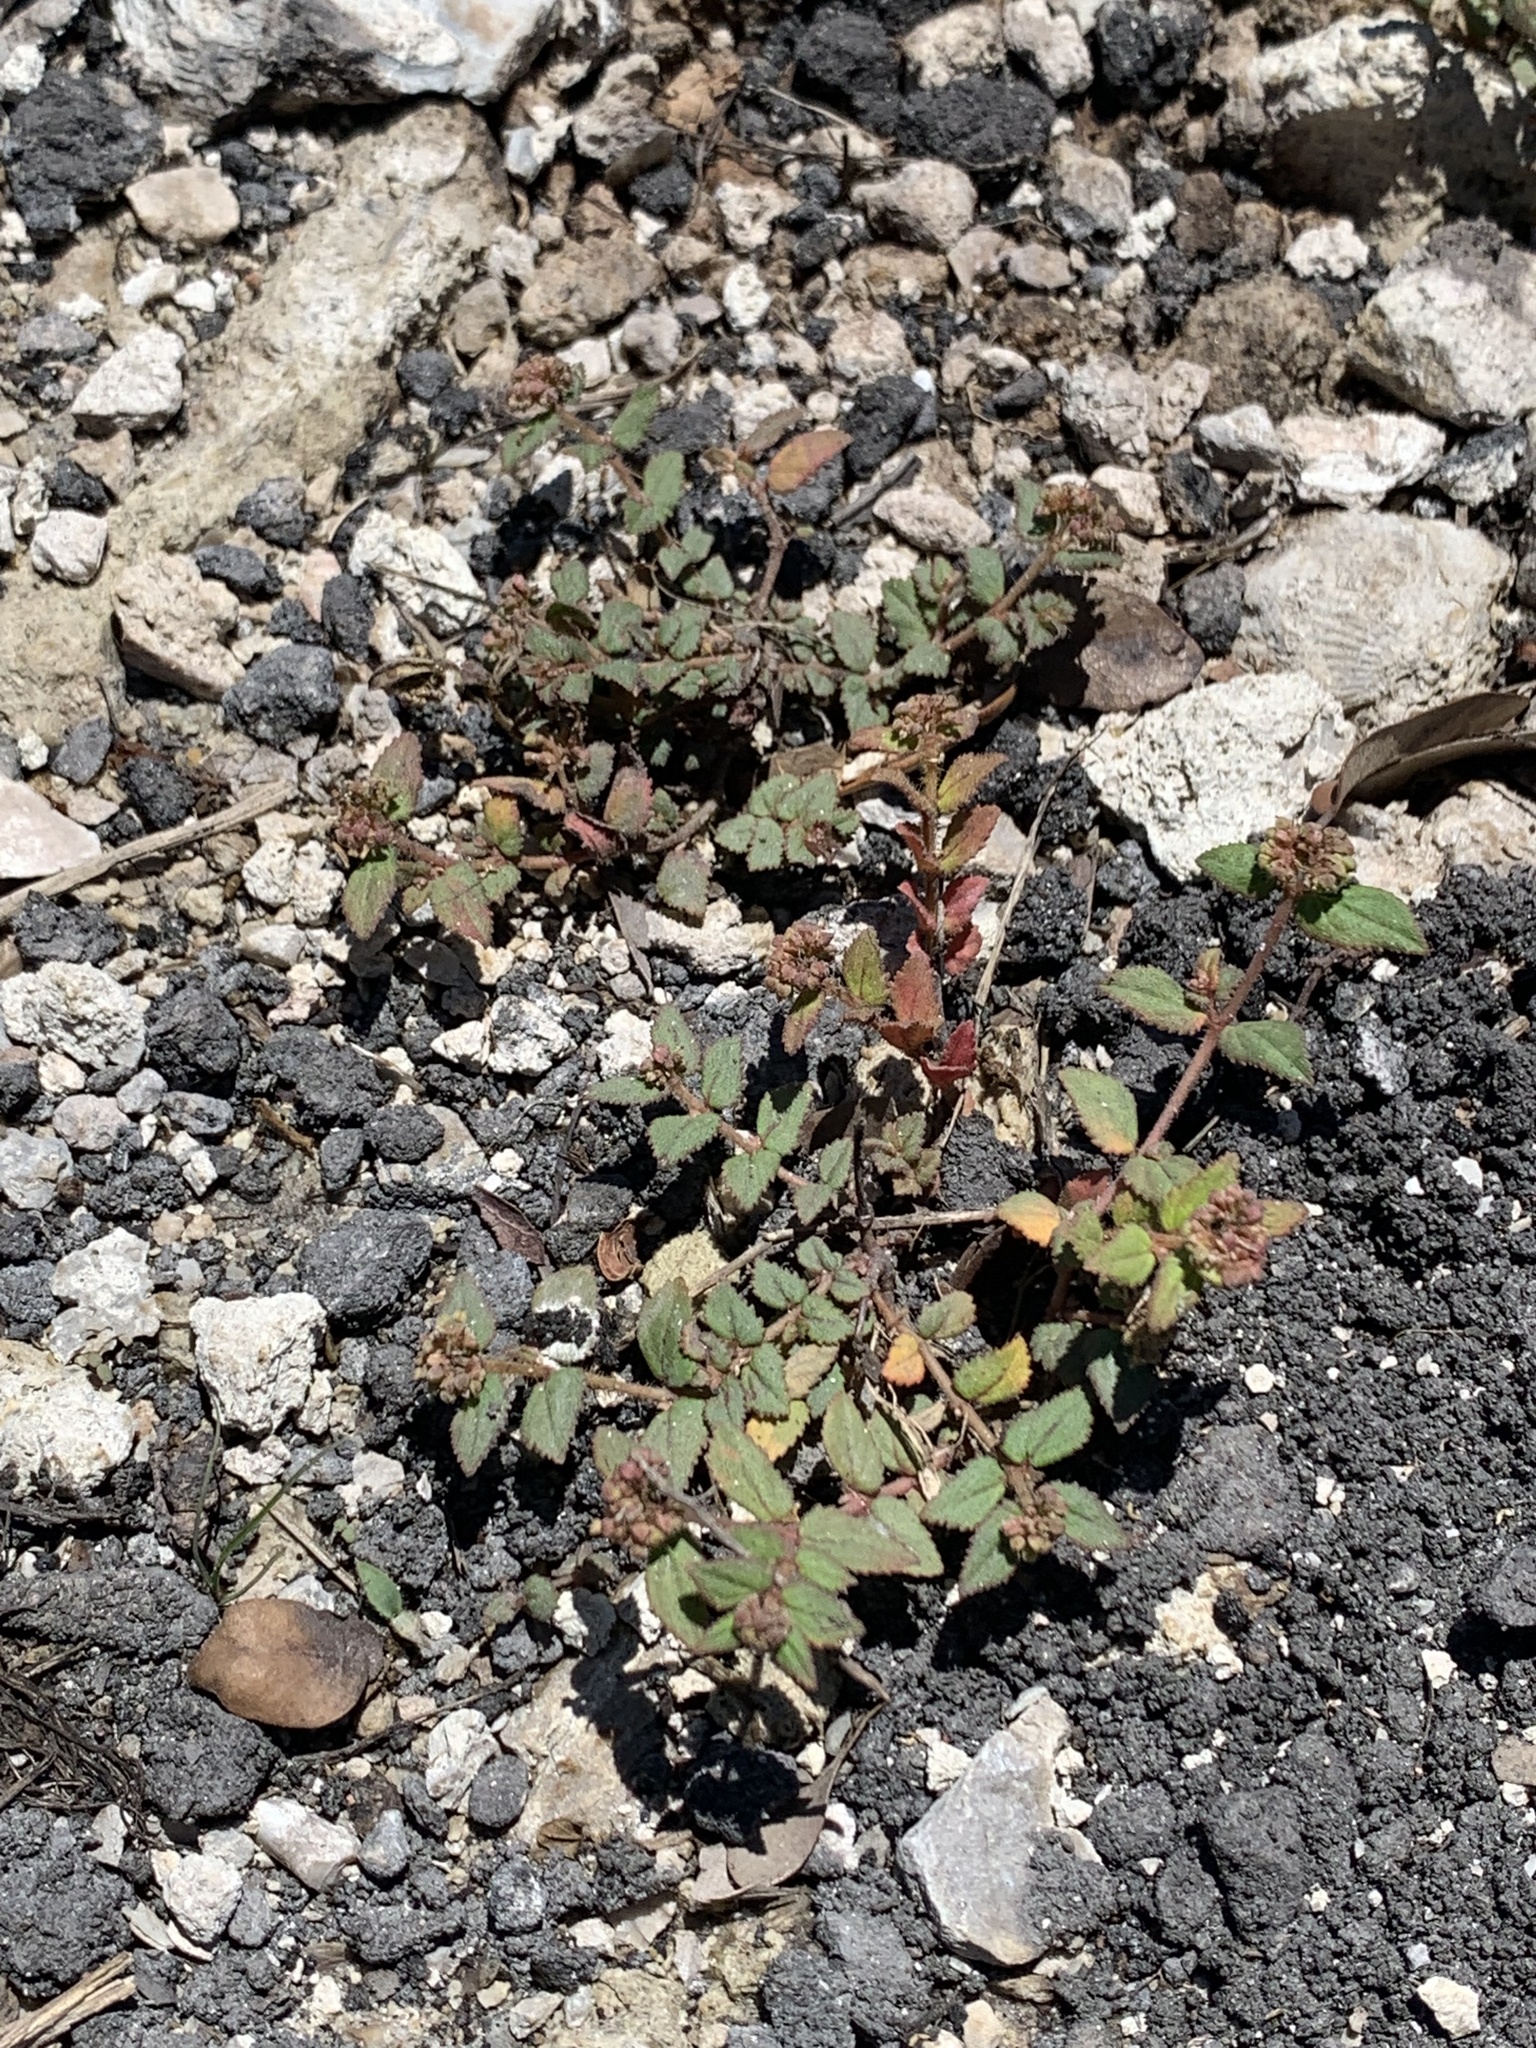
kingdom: Plantae
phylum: Tracheophyta
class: Magnoliopsida
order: Malpighiales
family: Euphorbiaceae
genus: Euphorbia
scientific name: Euphorbia ophthalmica
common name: Florida hammock sandmat
